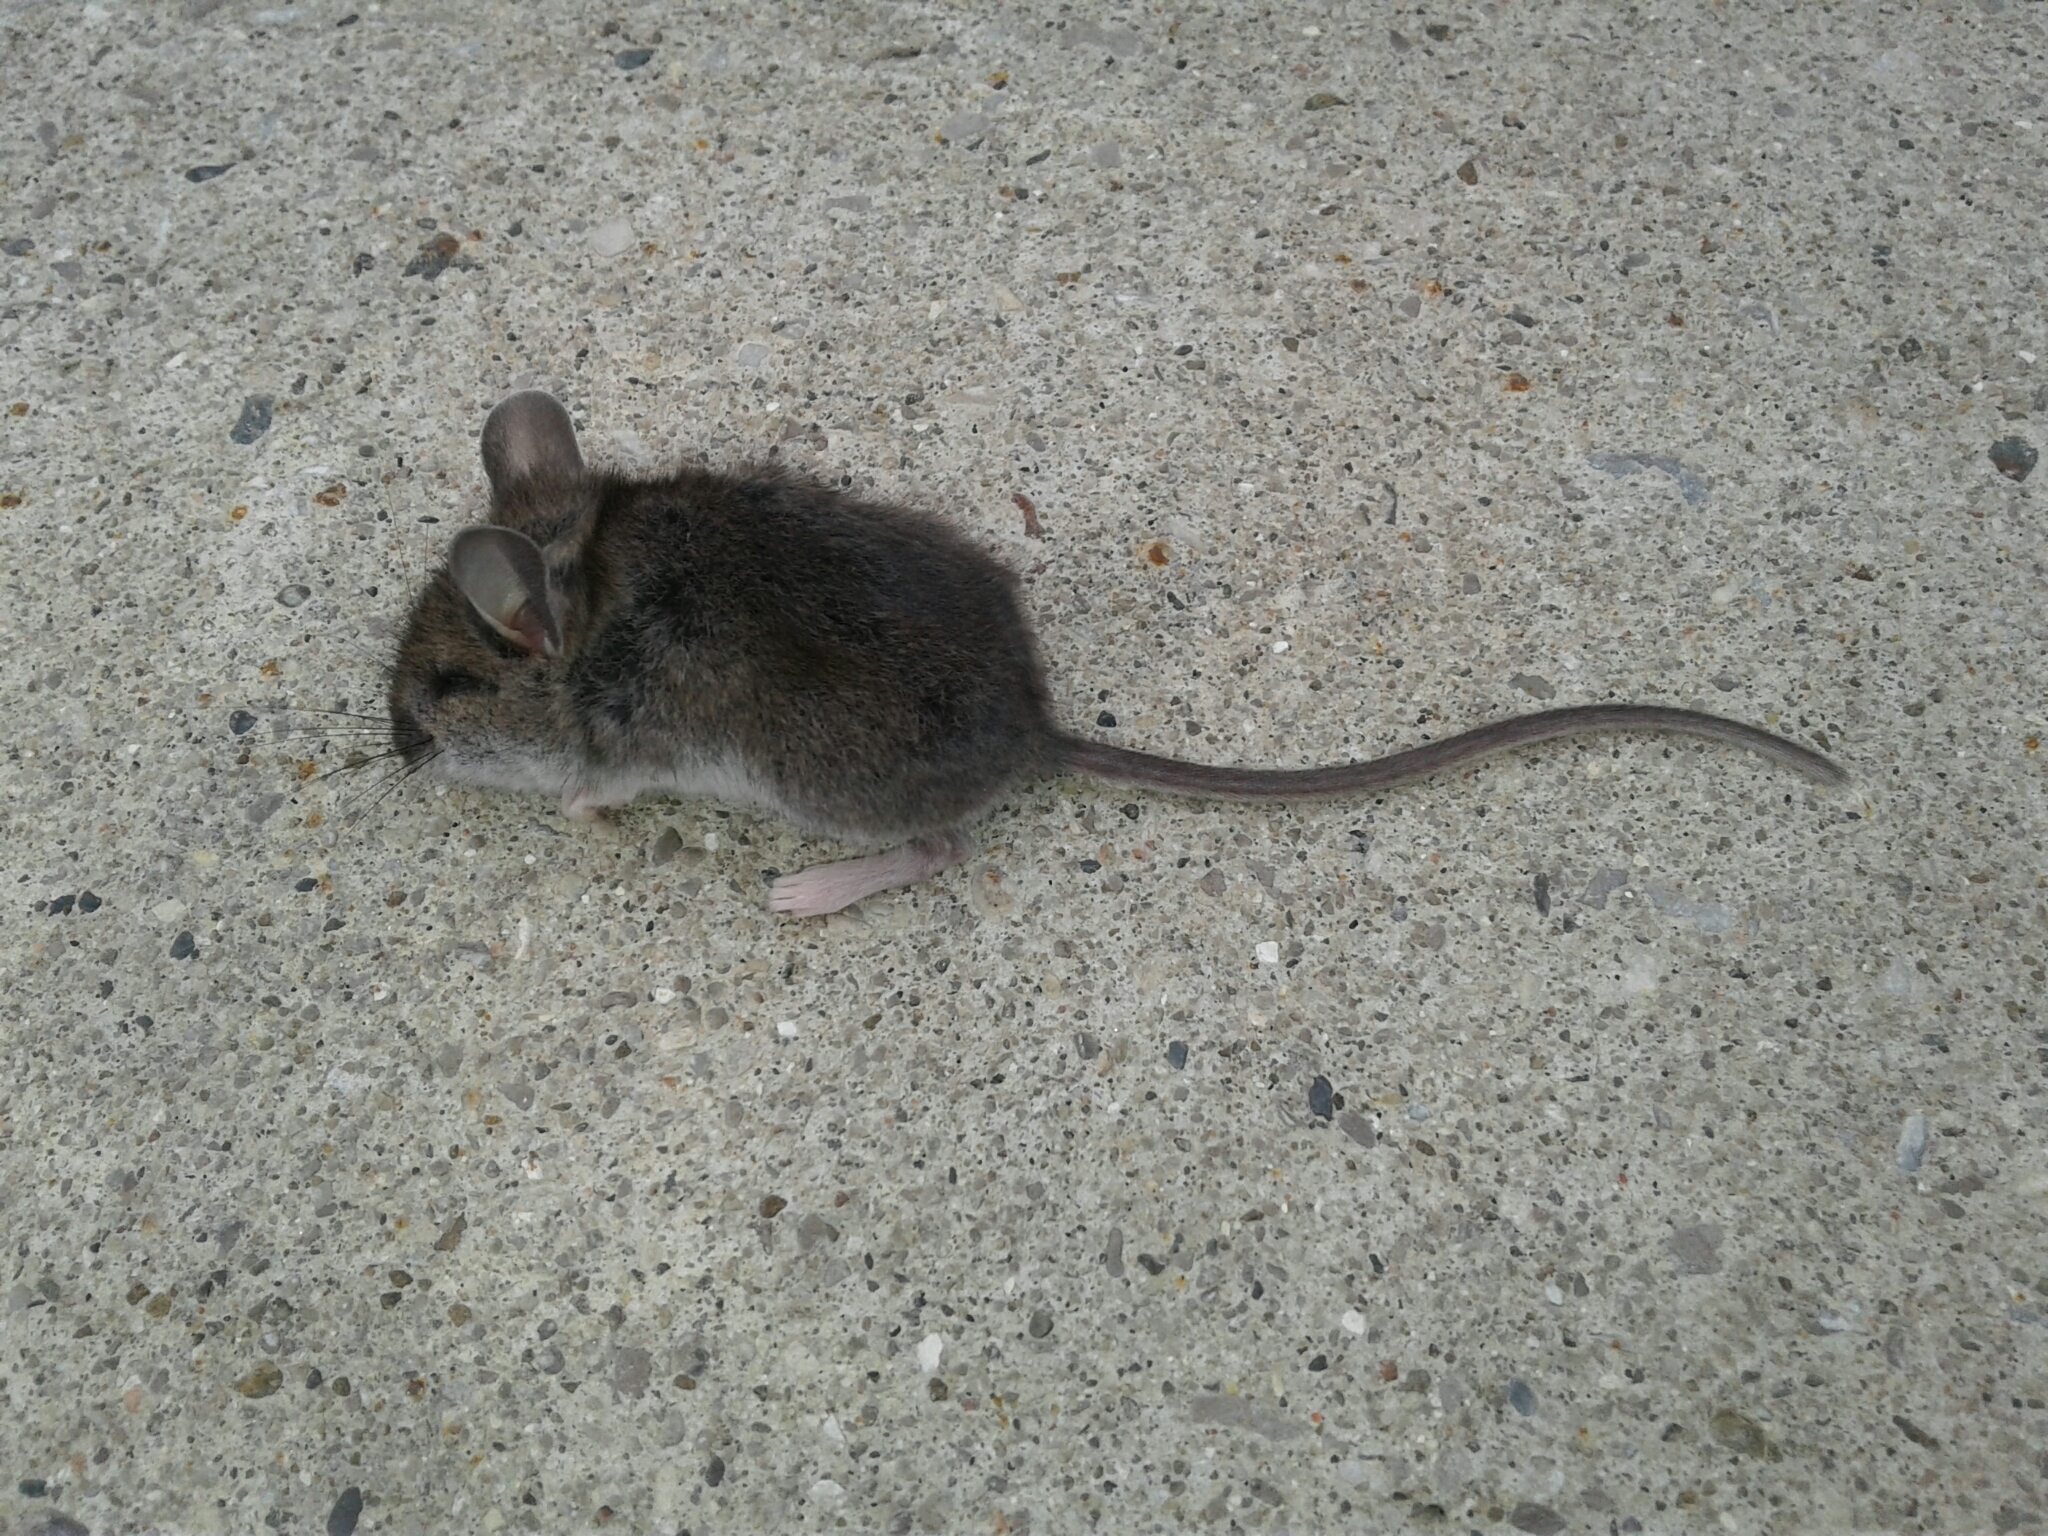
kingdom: Animalia
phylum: Chordata
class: Mammalia
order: Rodentia
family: Cricetidae
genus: Peromyscus
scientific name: Peromyscus maniculatus
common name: Deer mouse
